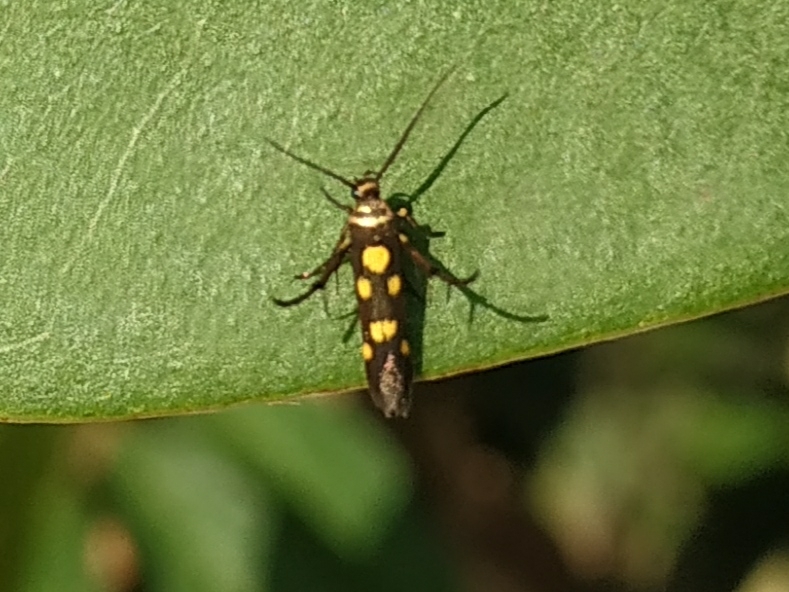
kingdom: Animalia
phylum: Arthropoda
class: Insecta
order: Lepidoptera
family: Scythrididae
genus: Eretmocera
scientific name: Eretmocera impactella
